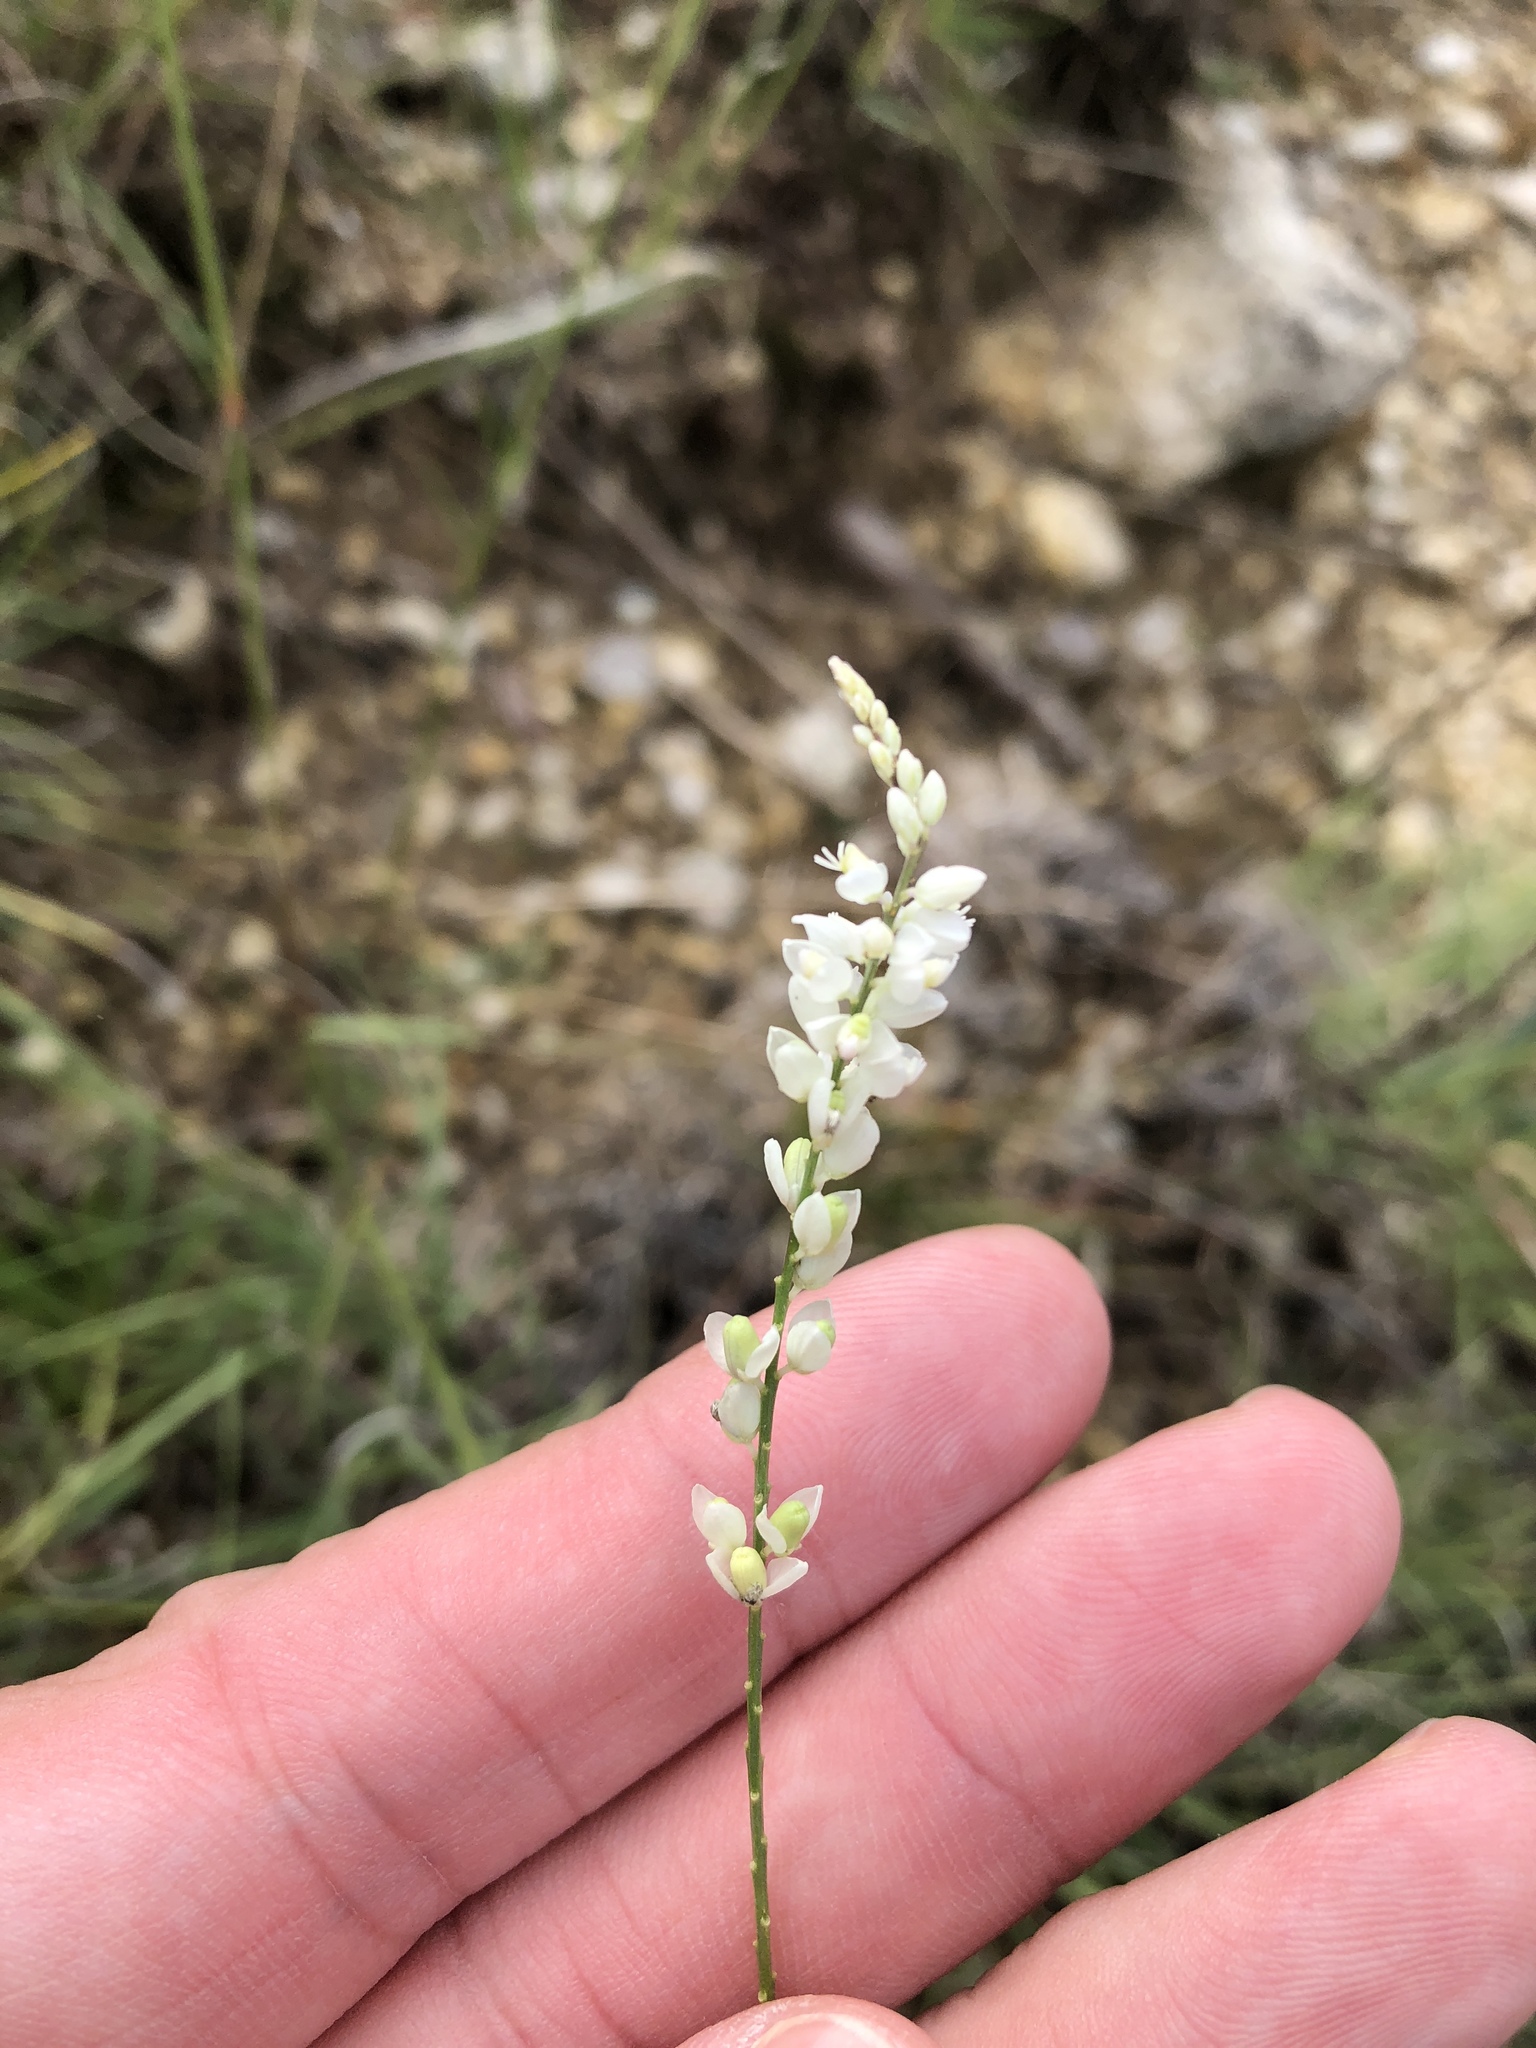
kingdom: Plantae
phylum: Tracheophyta
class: Magnoliopsida
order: Fabales
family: Polygalaceae
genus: Polygala
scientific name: Polygala alba
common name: White milkwort
